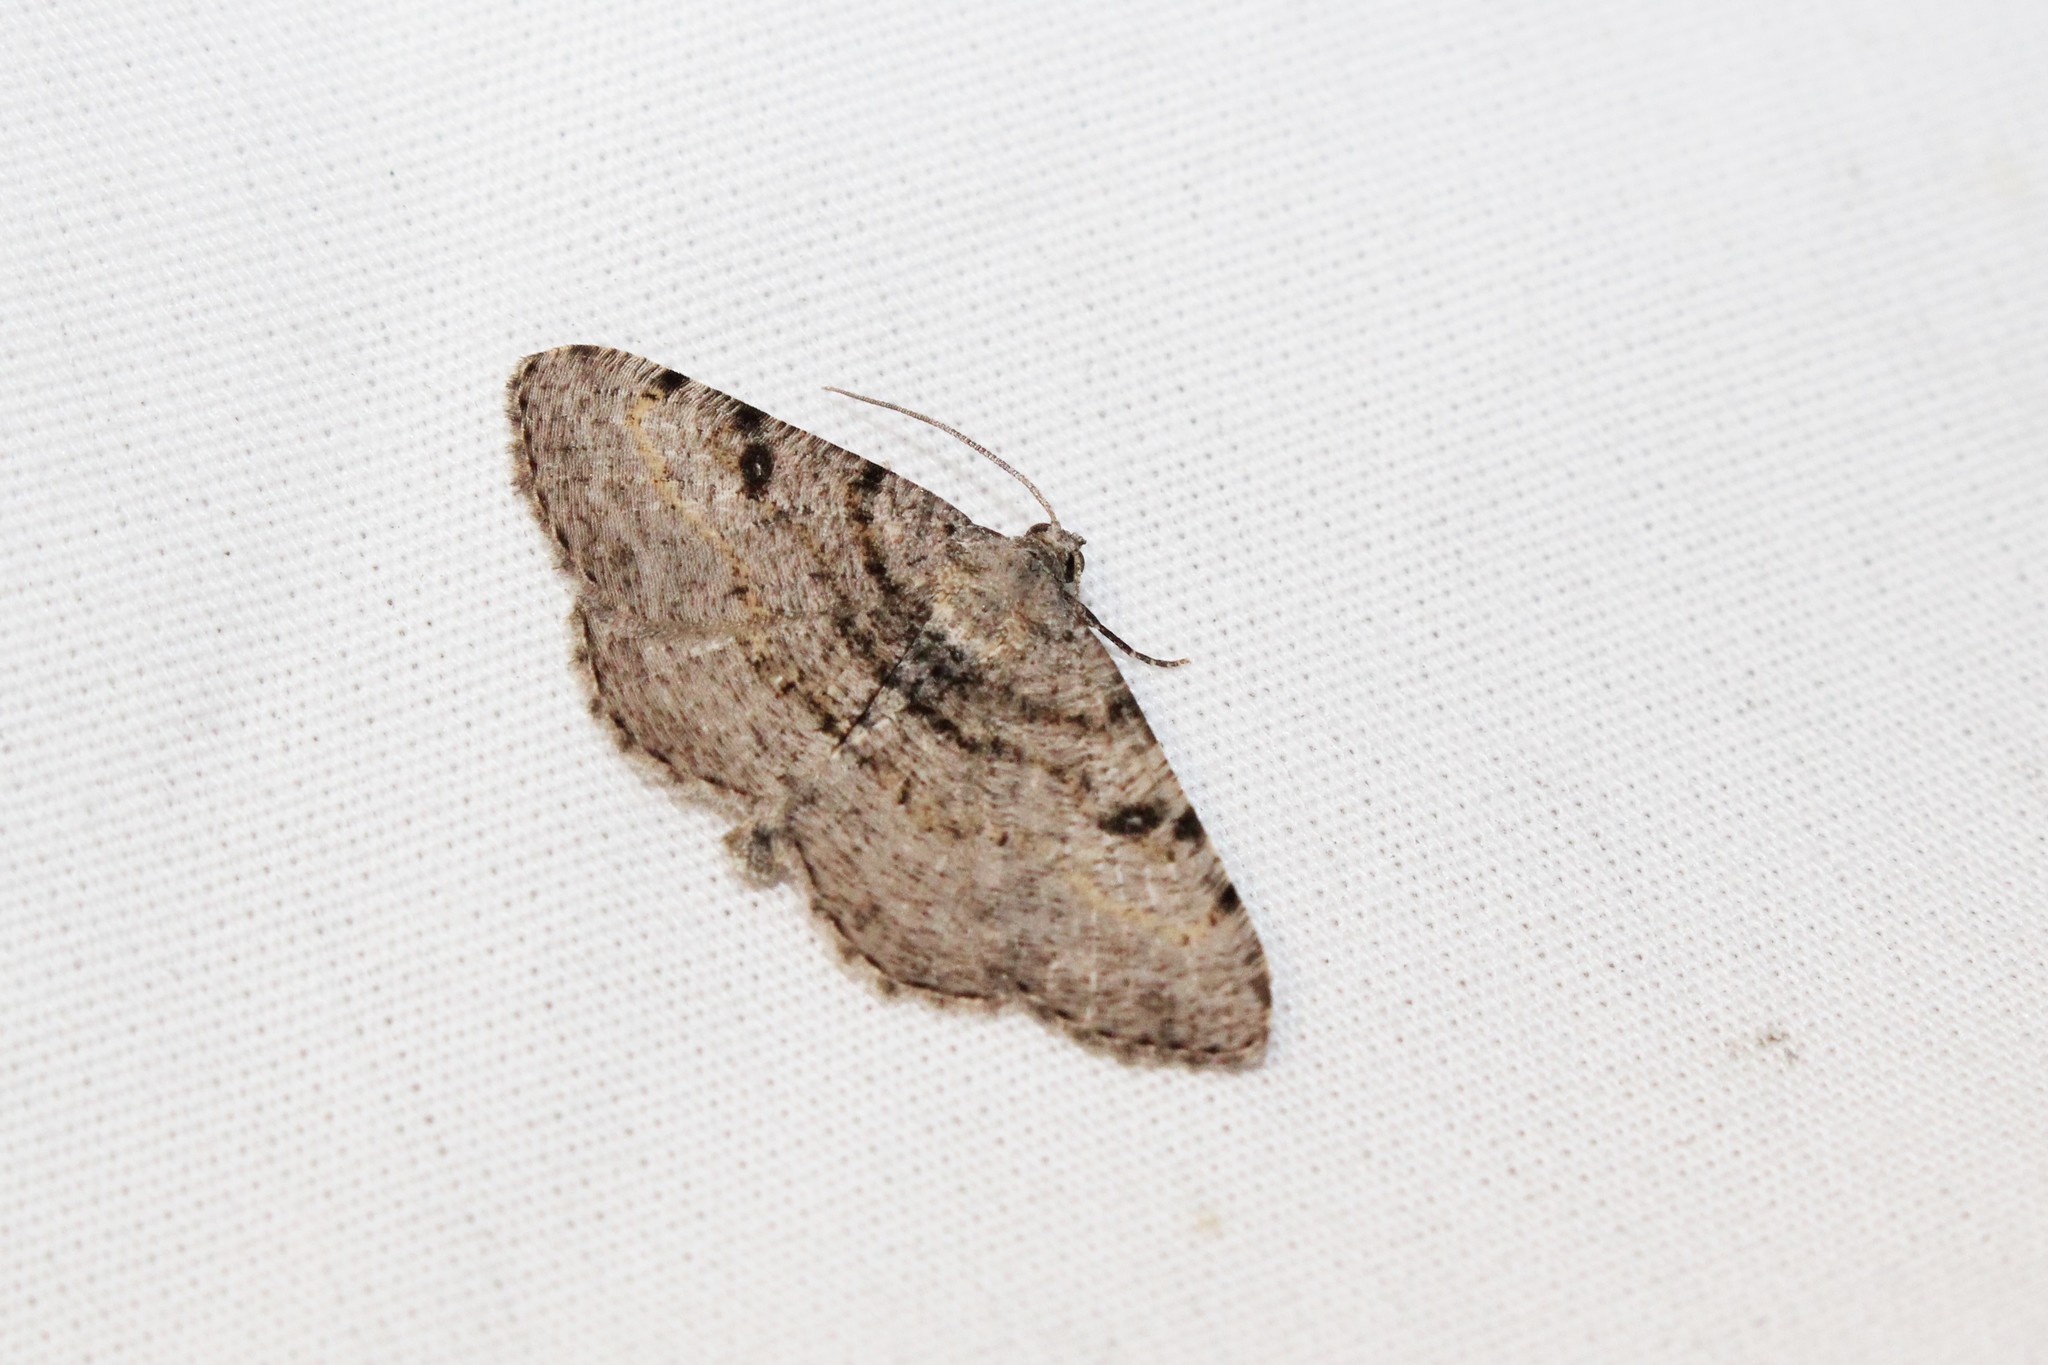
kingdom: Animalia
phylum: Arthropoda
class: Insecta
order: Lepidoptera
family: Geometridae
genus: Digrammia
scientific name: Digrammia gnophosaria
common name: Hollow-spotted angle
